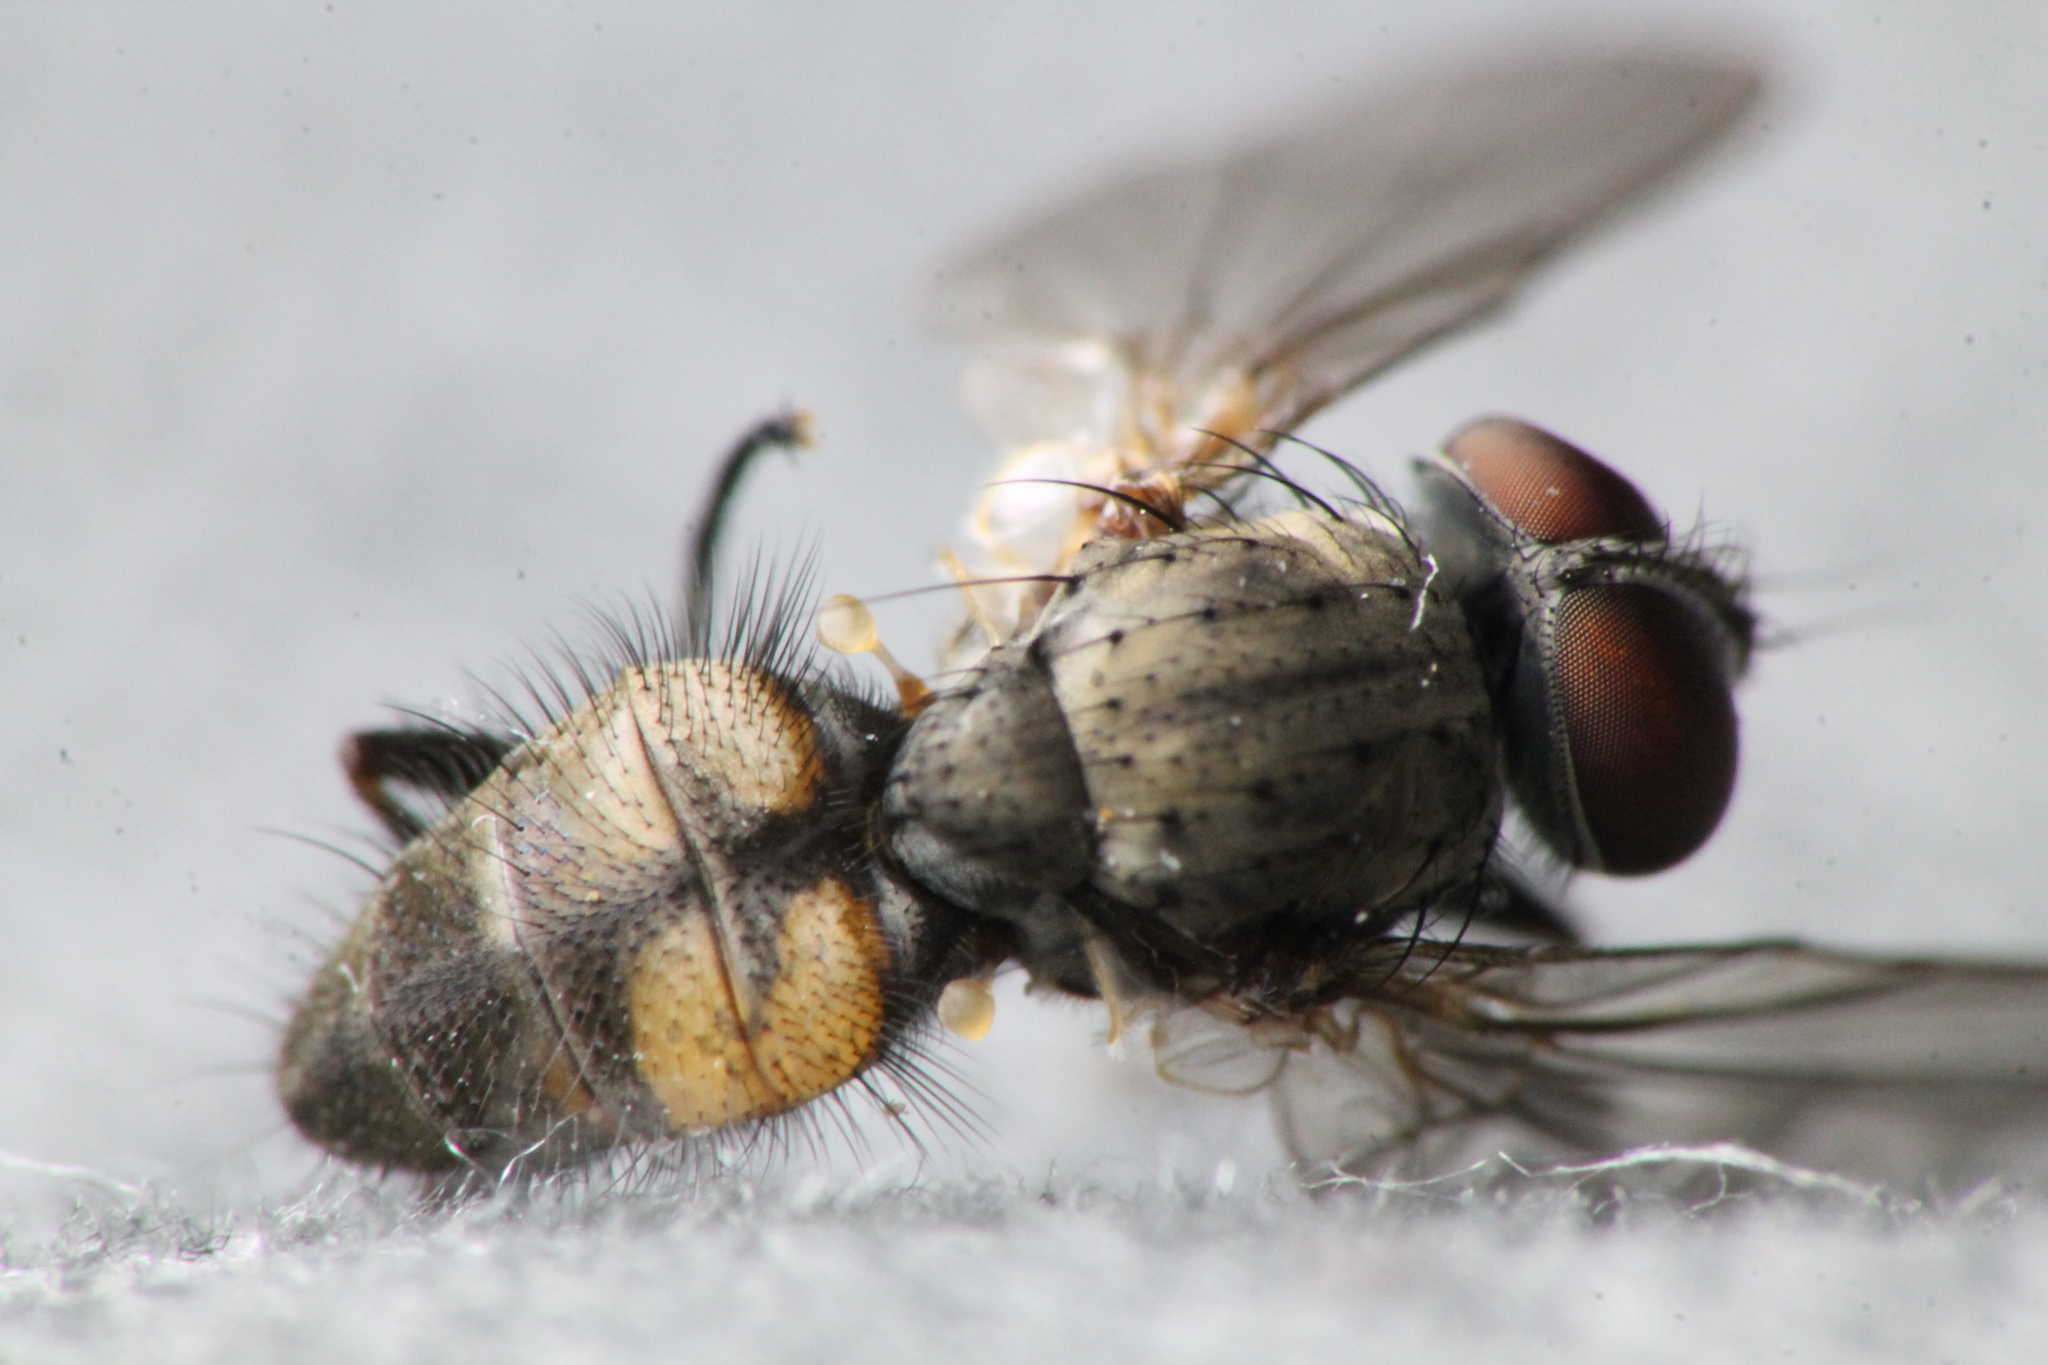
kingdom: Animalia
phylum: Arthropoda
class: Insecta
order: Diptera
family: Fanniidae
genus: Fannia
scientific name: Fannia canicularis
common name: Little house fly
